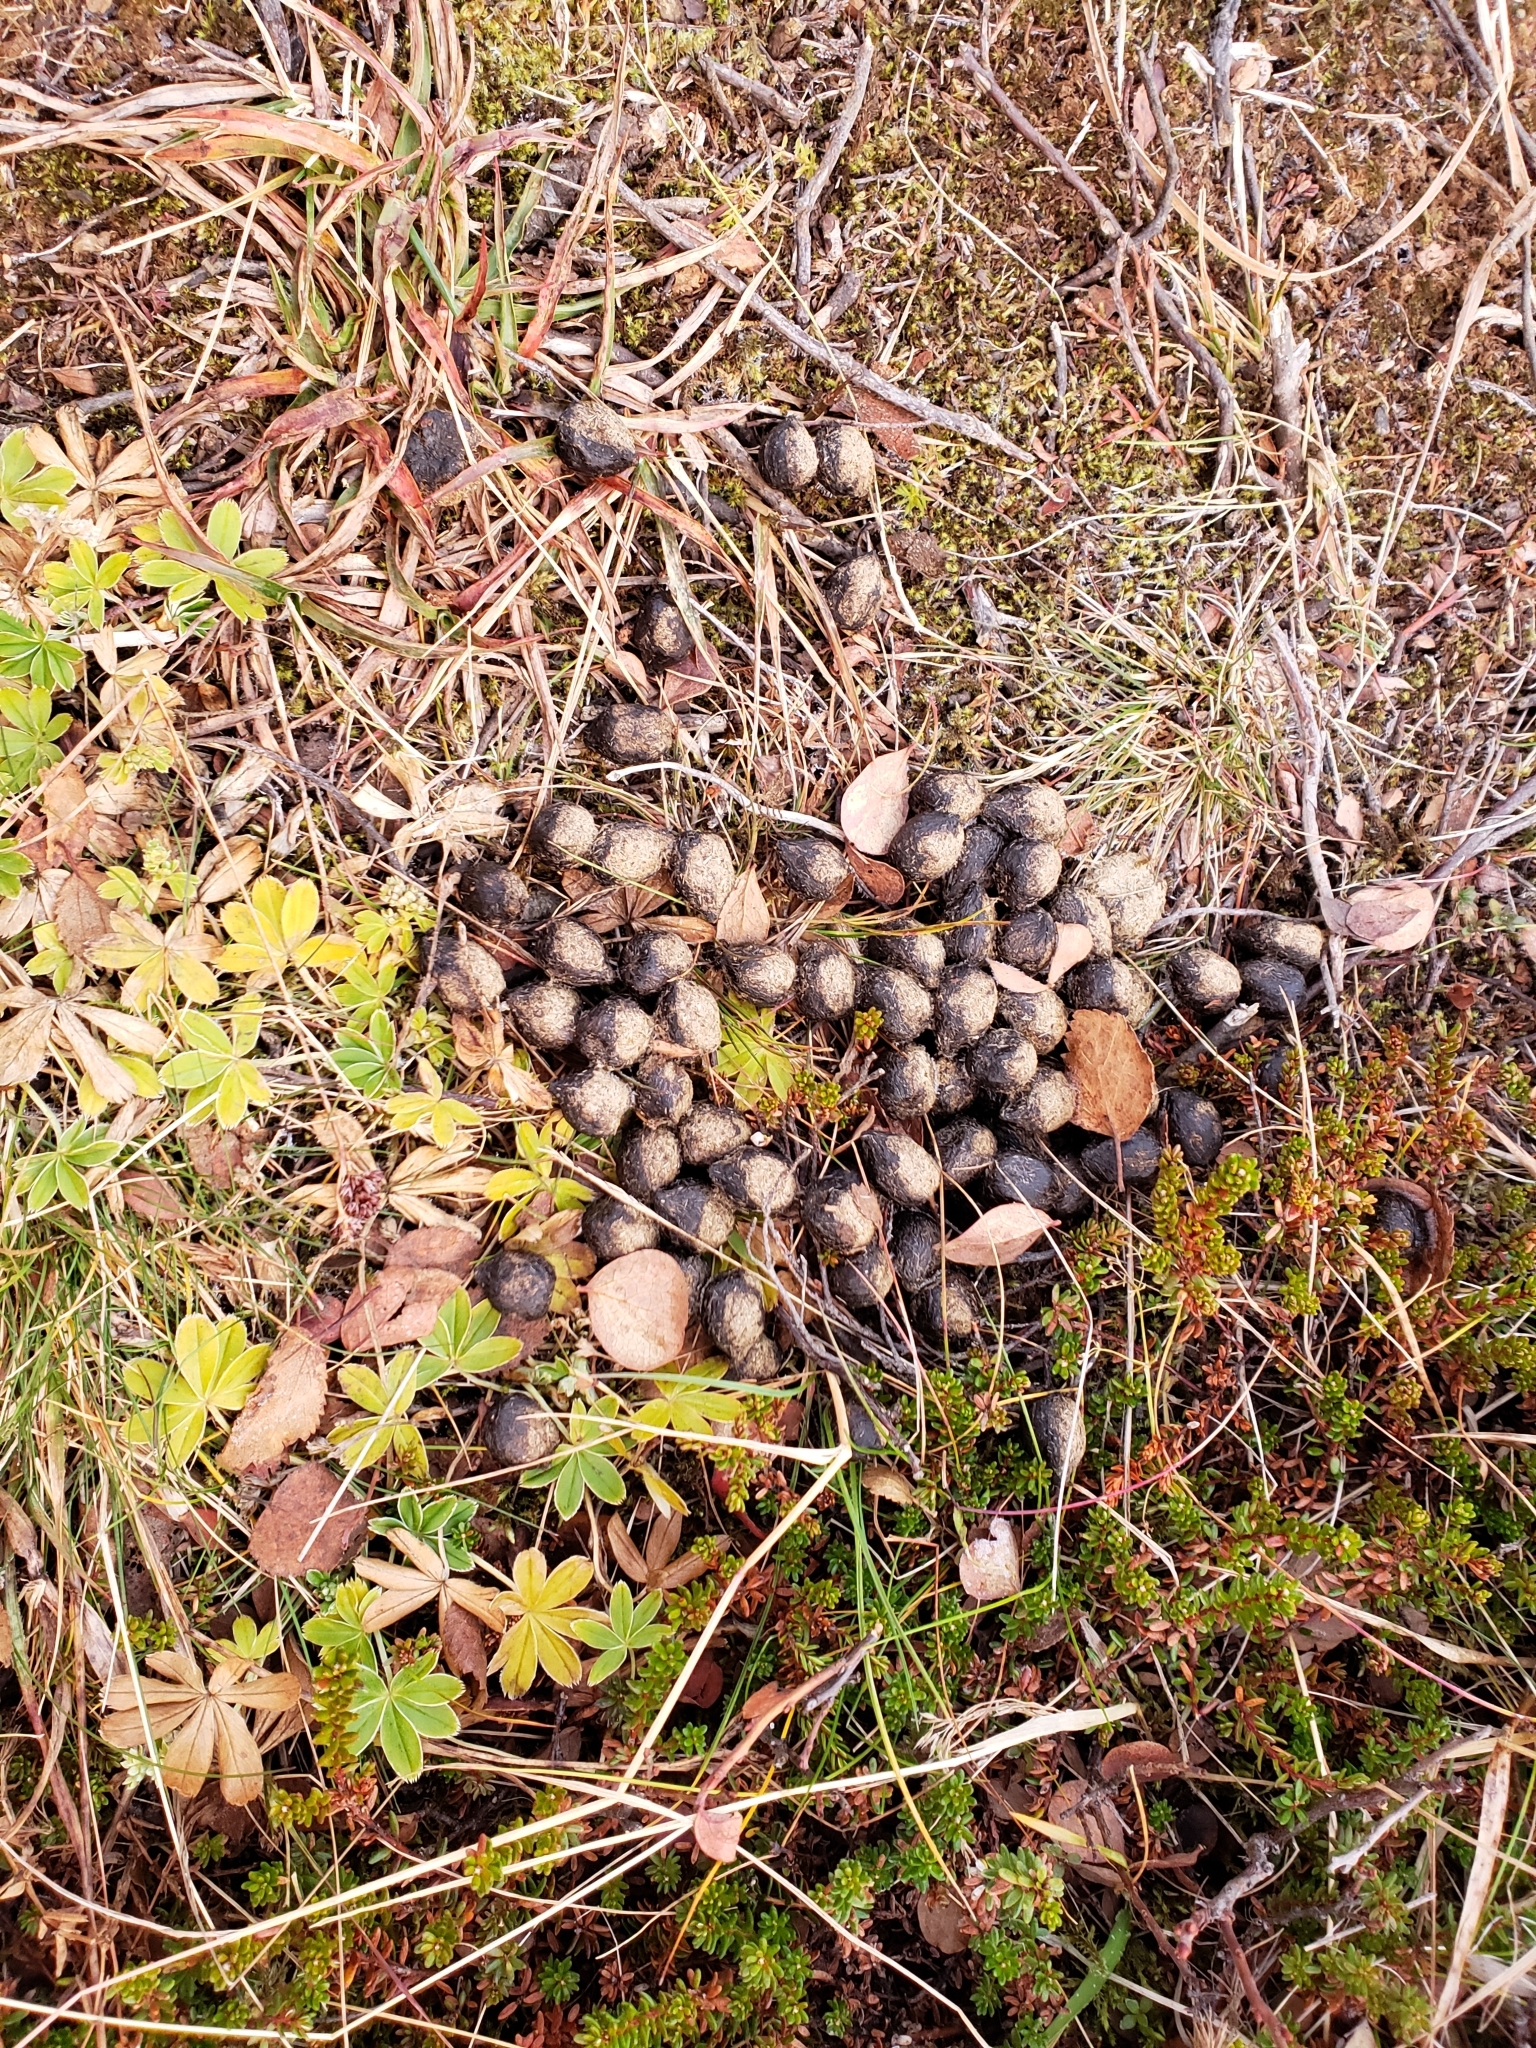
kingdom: Animalia
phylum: Chordata
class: Mammalia
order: Lagomorpha
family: Leporidae
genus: Oryctolagus
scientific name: Oryctolagus cuniculus
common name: European rabbit
